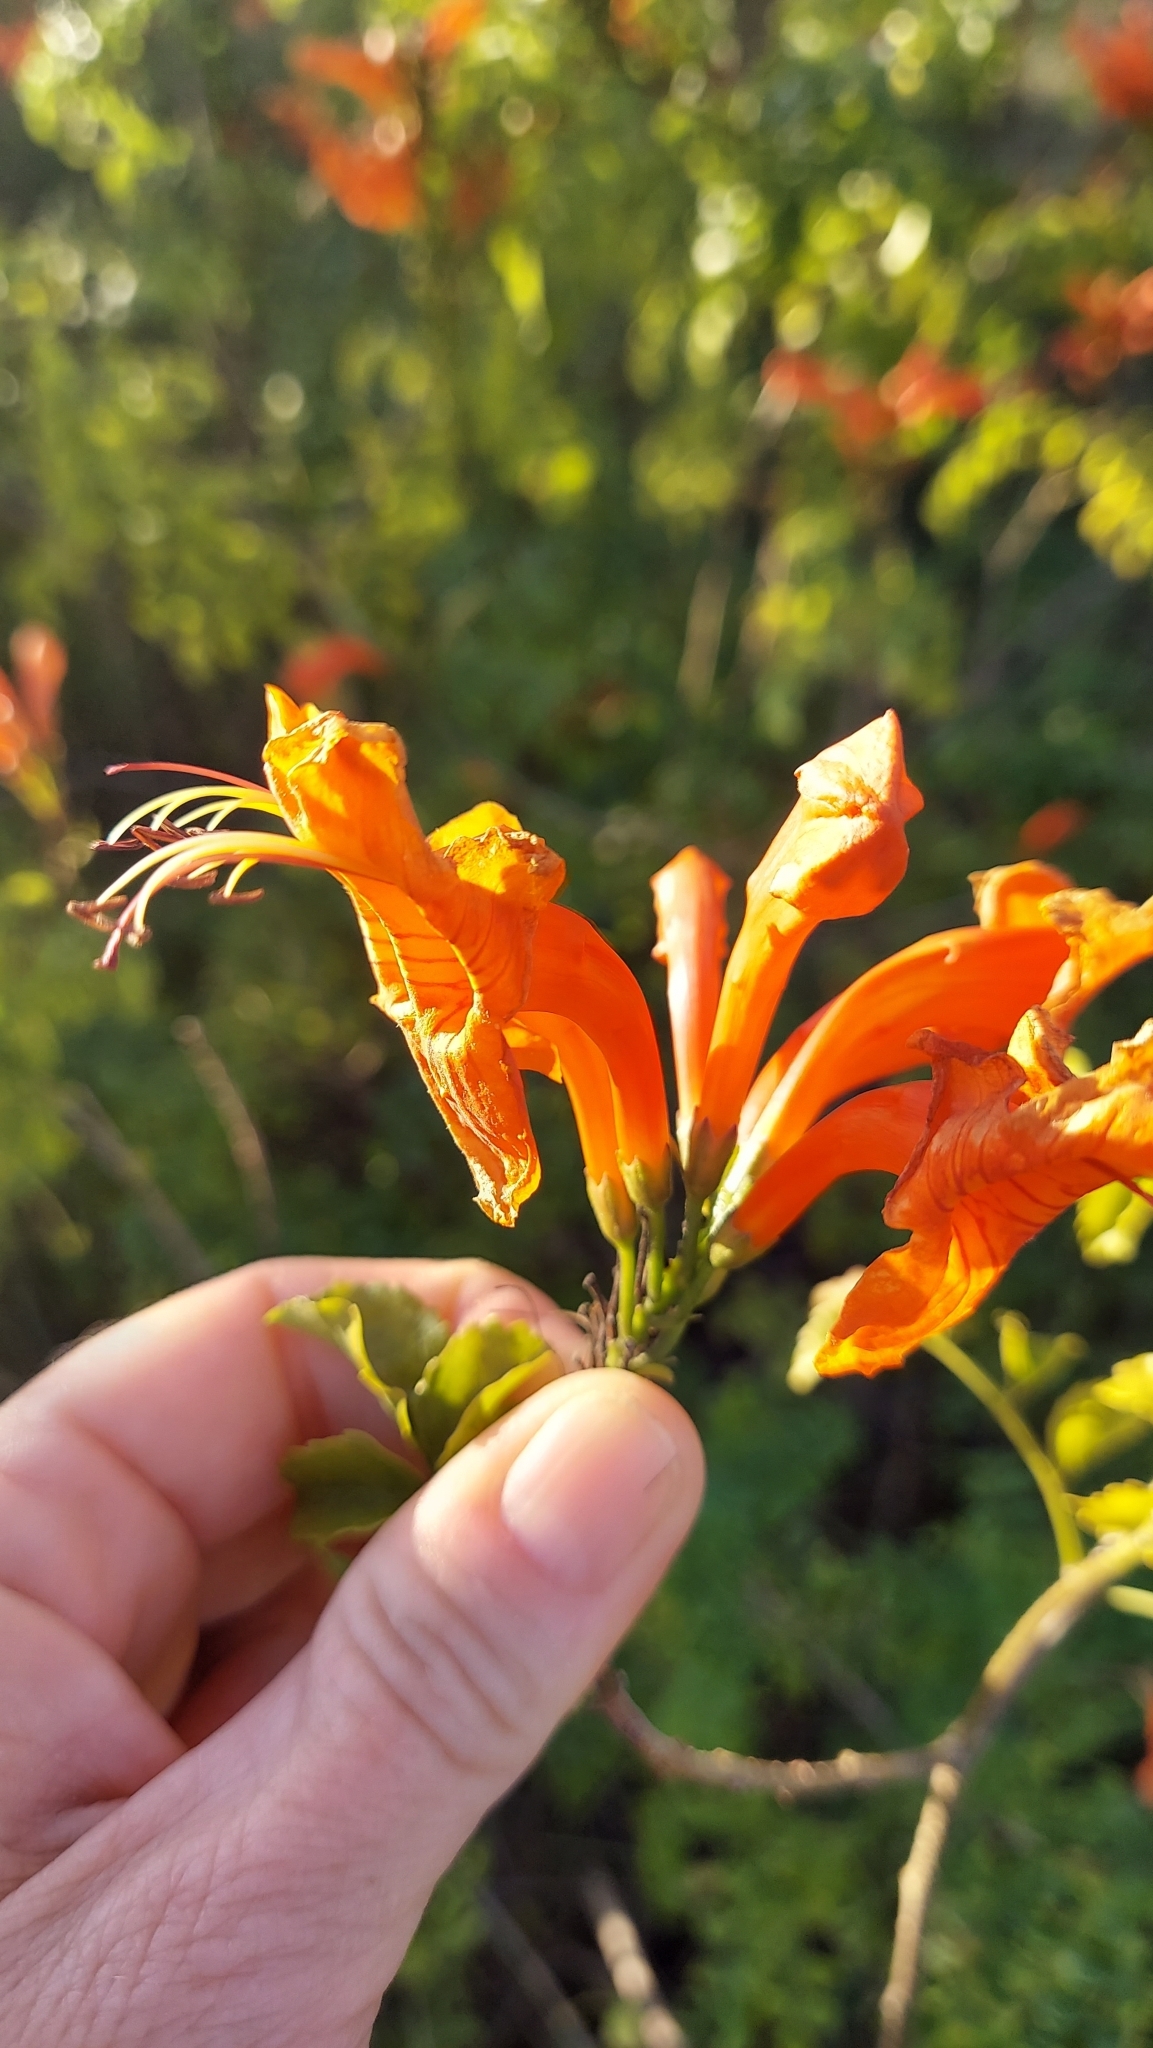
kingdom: Plantae
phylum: Tracheophyta
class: Magnoliopsida
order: Lamiales
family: Bignoniaceae
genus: Tecomaria
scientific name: Tecomaria capensis
